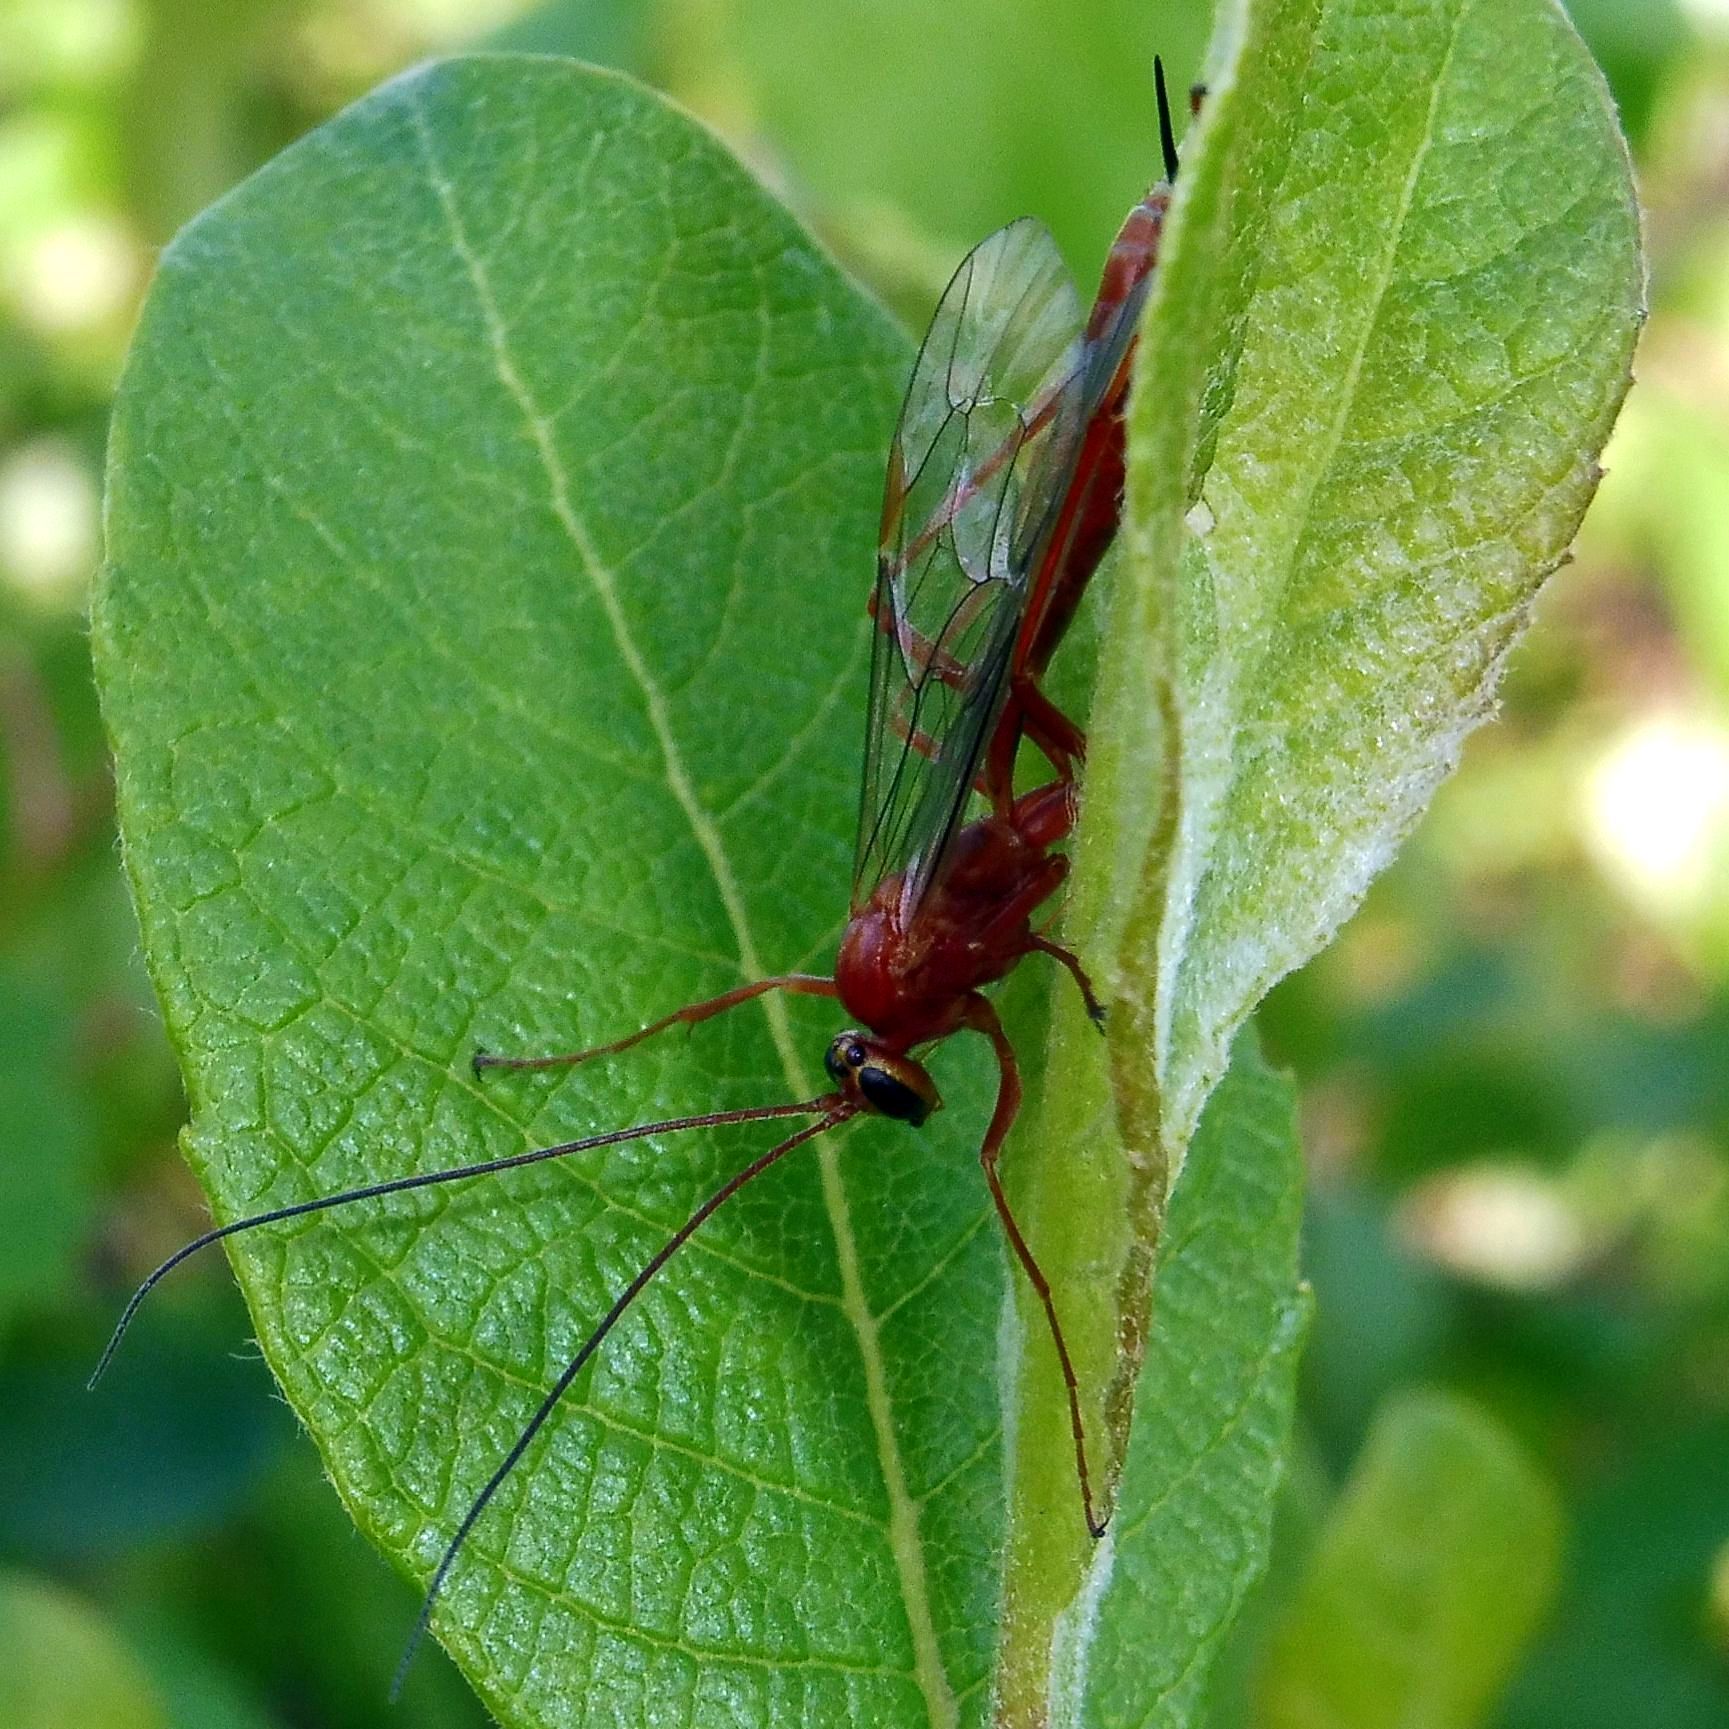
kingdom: Animalia
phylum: Arthropoda
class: Insecta
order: Hymenoptera
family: Ichneumonidae
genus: Netelia
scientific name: Netelia fuscicornis
